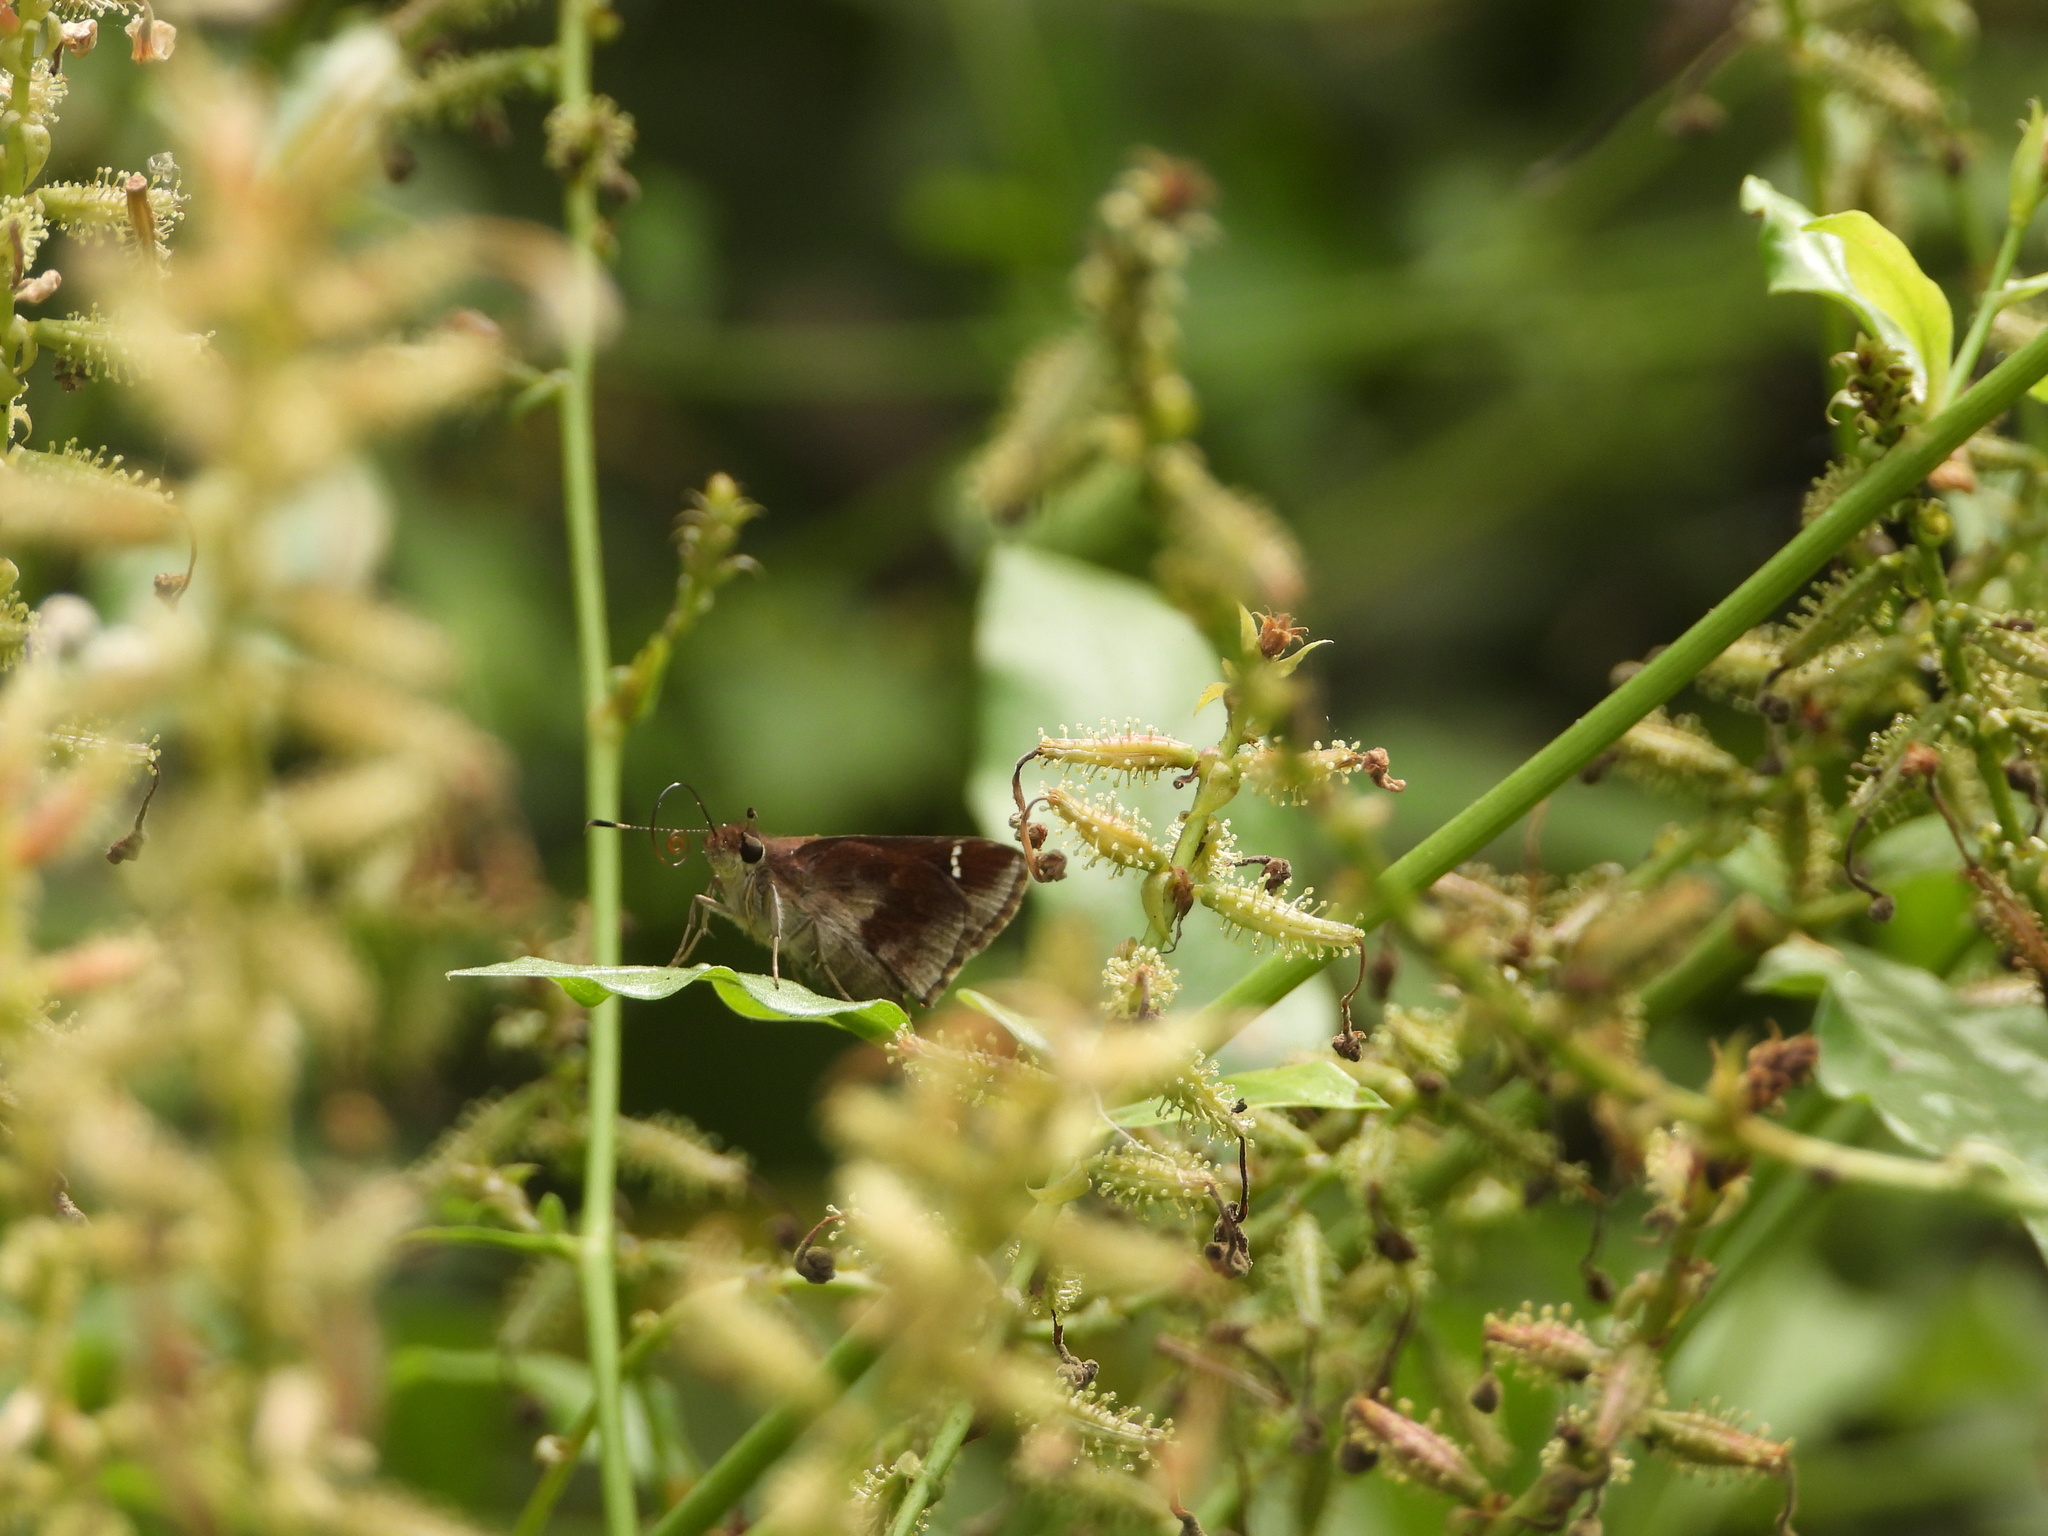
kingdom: Animalia
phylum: Arthropoda
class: Insecta
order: Lepidoptera
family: Hesperiidae
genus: Lerema
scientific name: Lerema accius
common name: Clouded skipper
